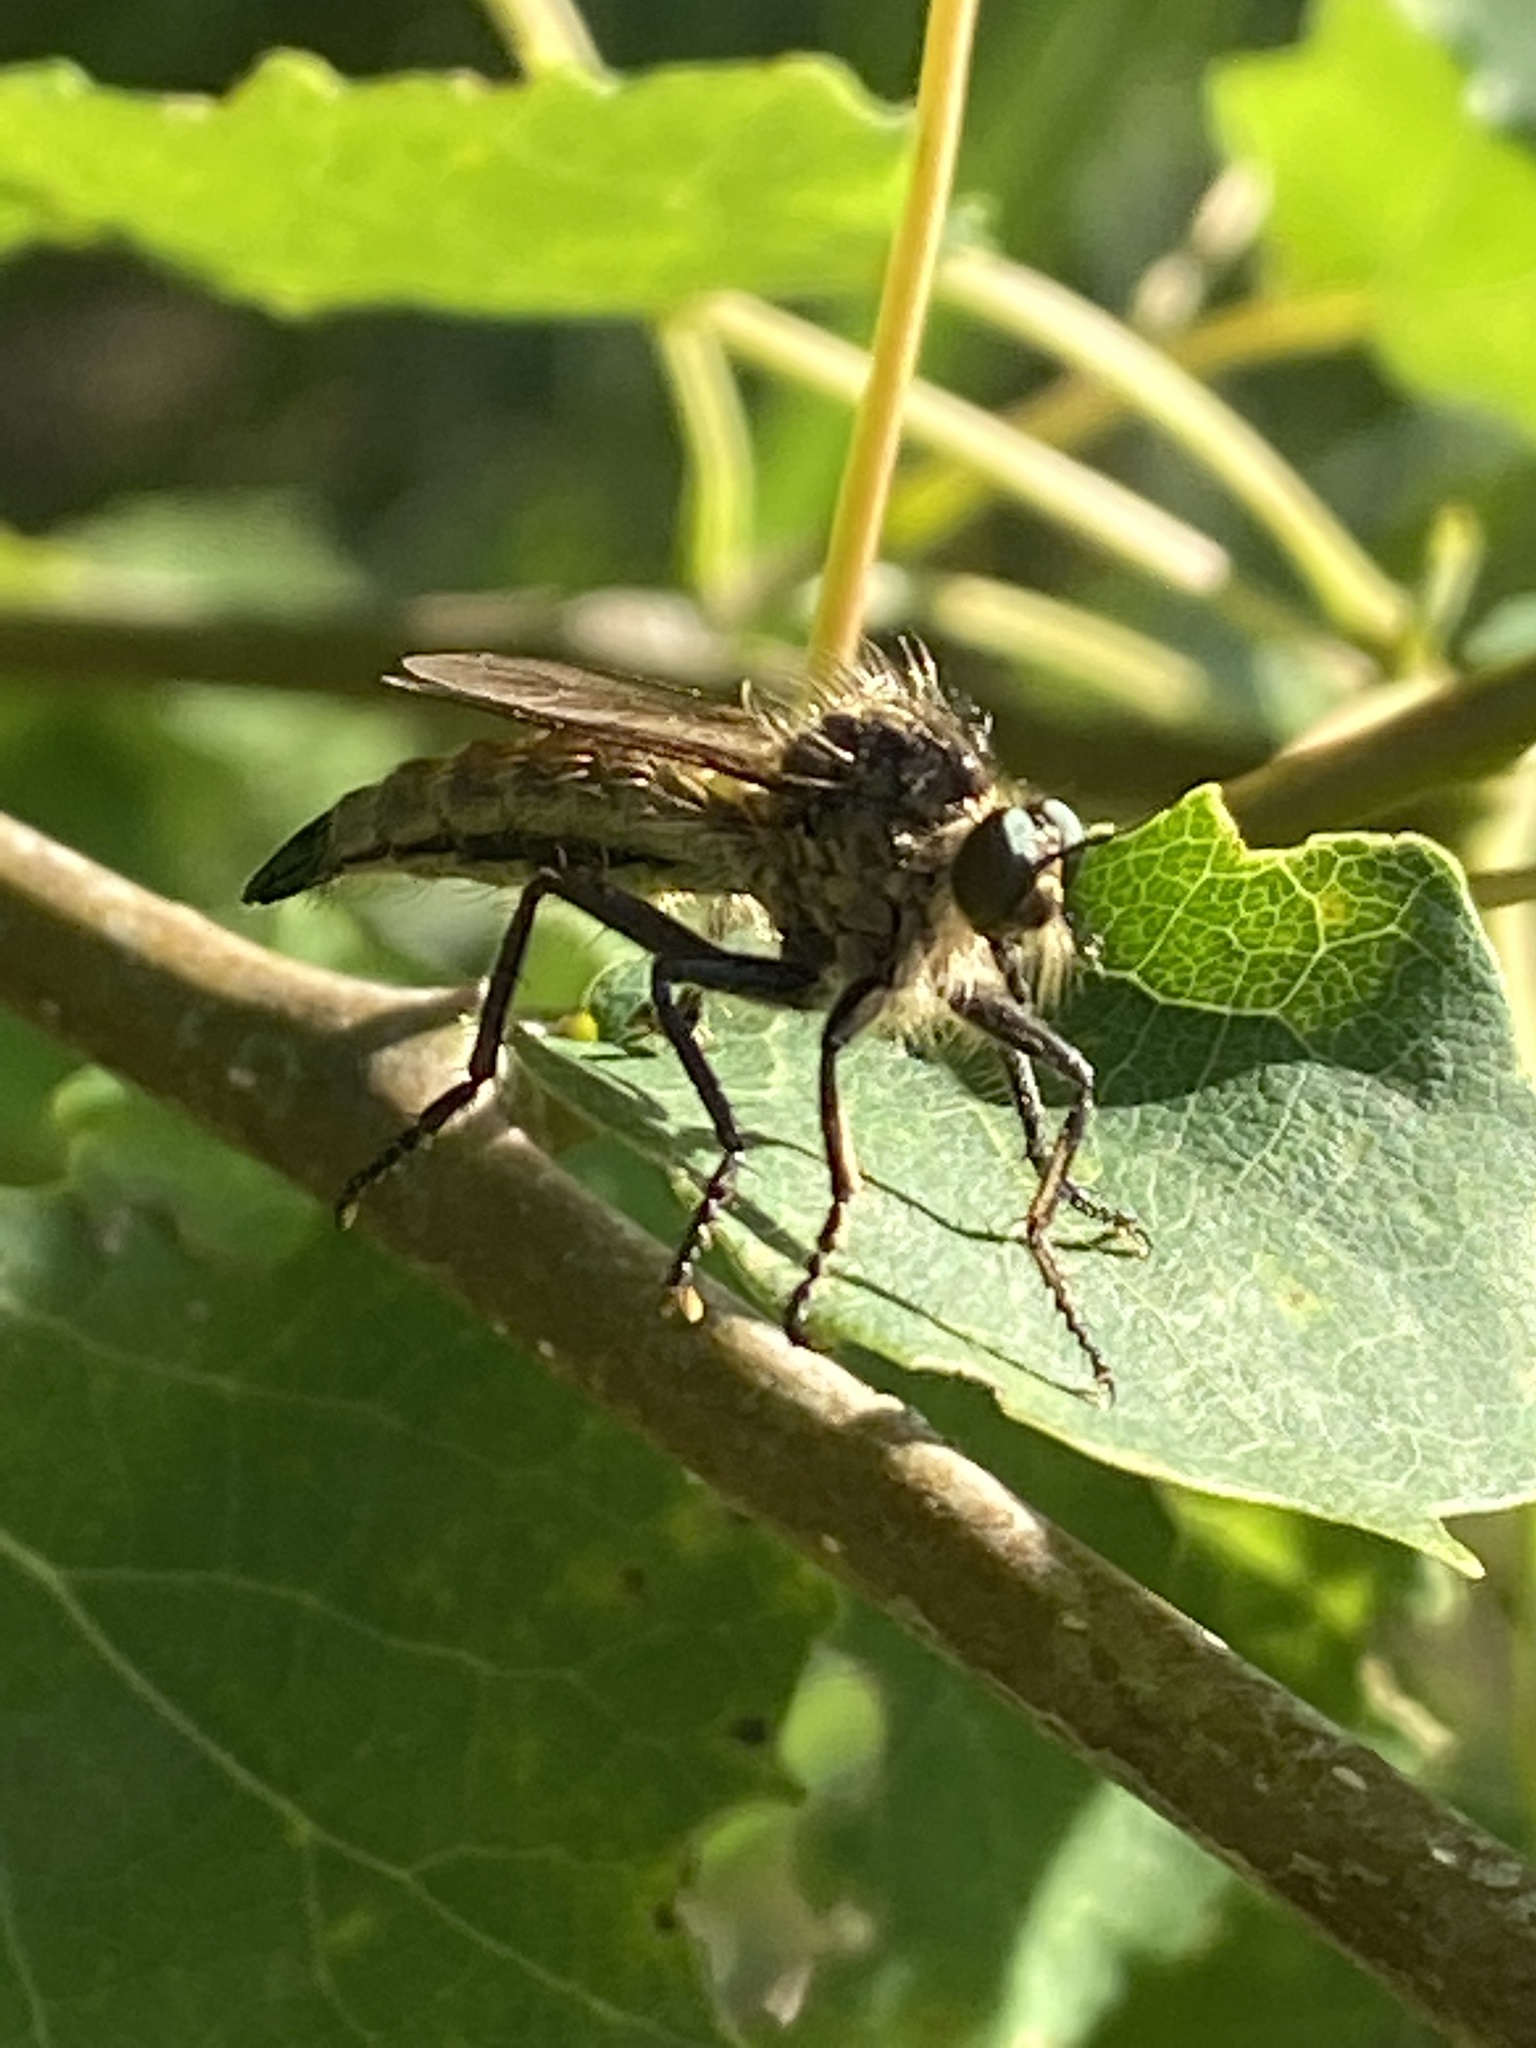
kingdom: Animalia
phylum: Arthropoda
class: Insecta
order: Diptera
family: Asilidae
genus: Didysmachus
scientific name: Didysmachus picipes
